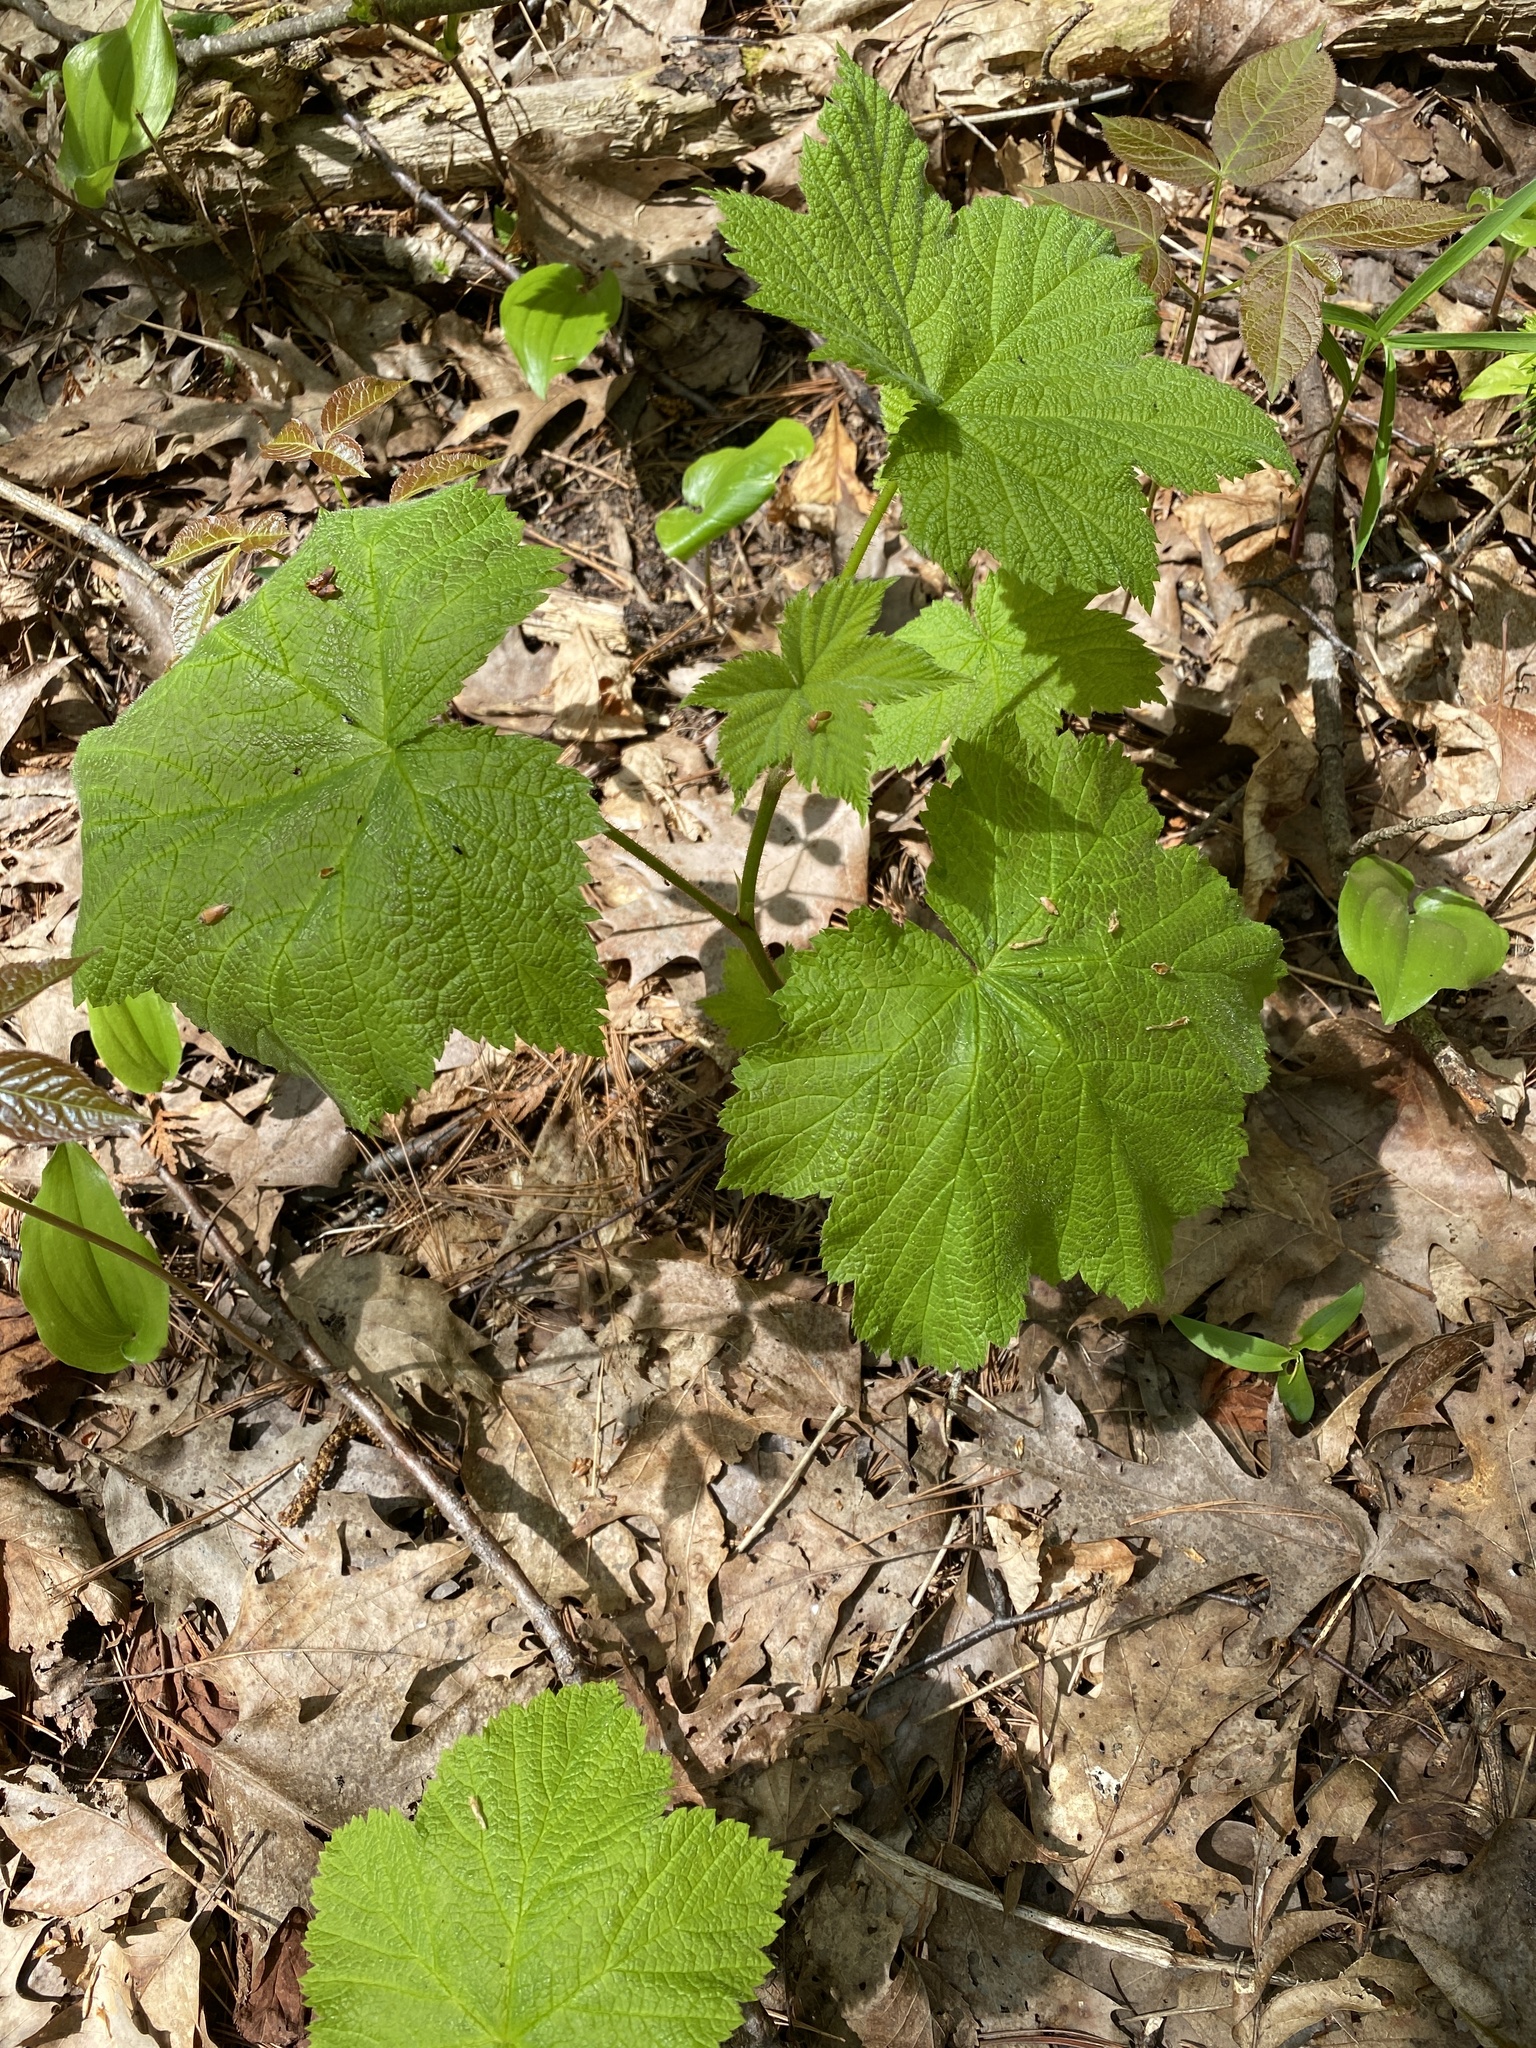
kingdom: Plantae
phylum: Tracheophyta
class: Magnoliopsida
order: Rosales
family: Rosaceae
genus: Rubus
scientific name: Rubus parviflorus
